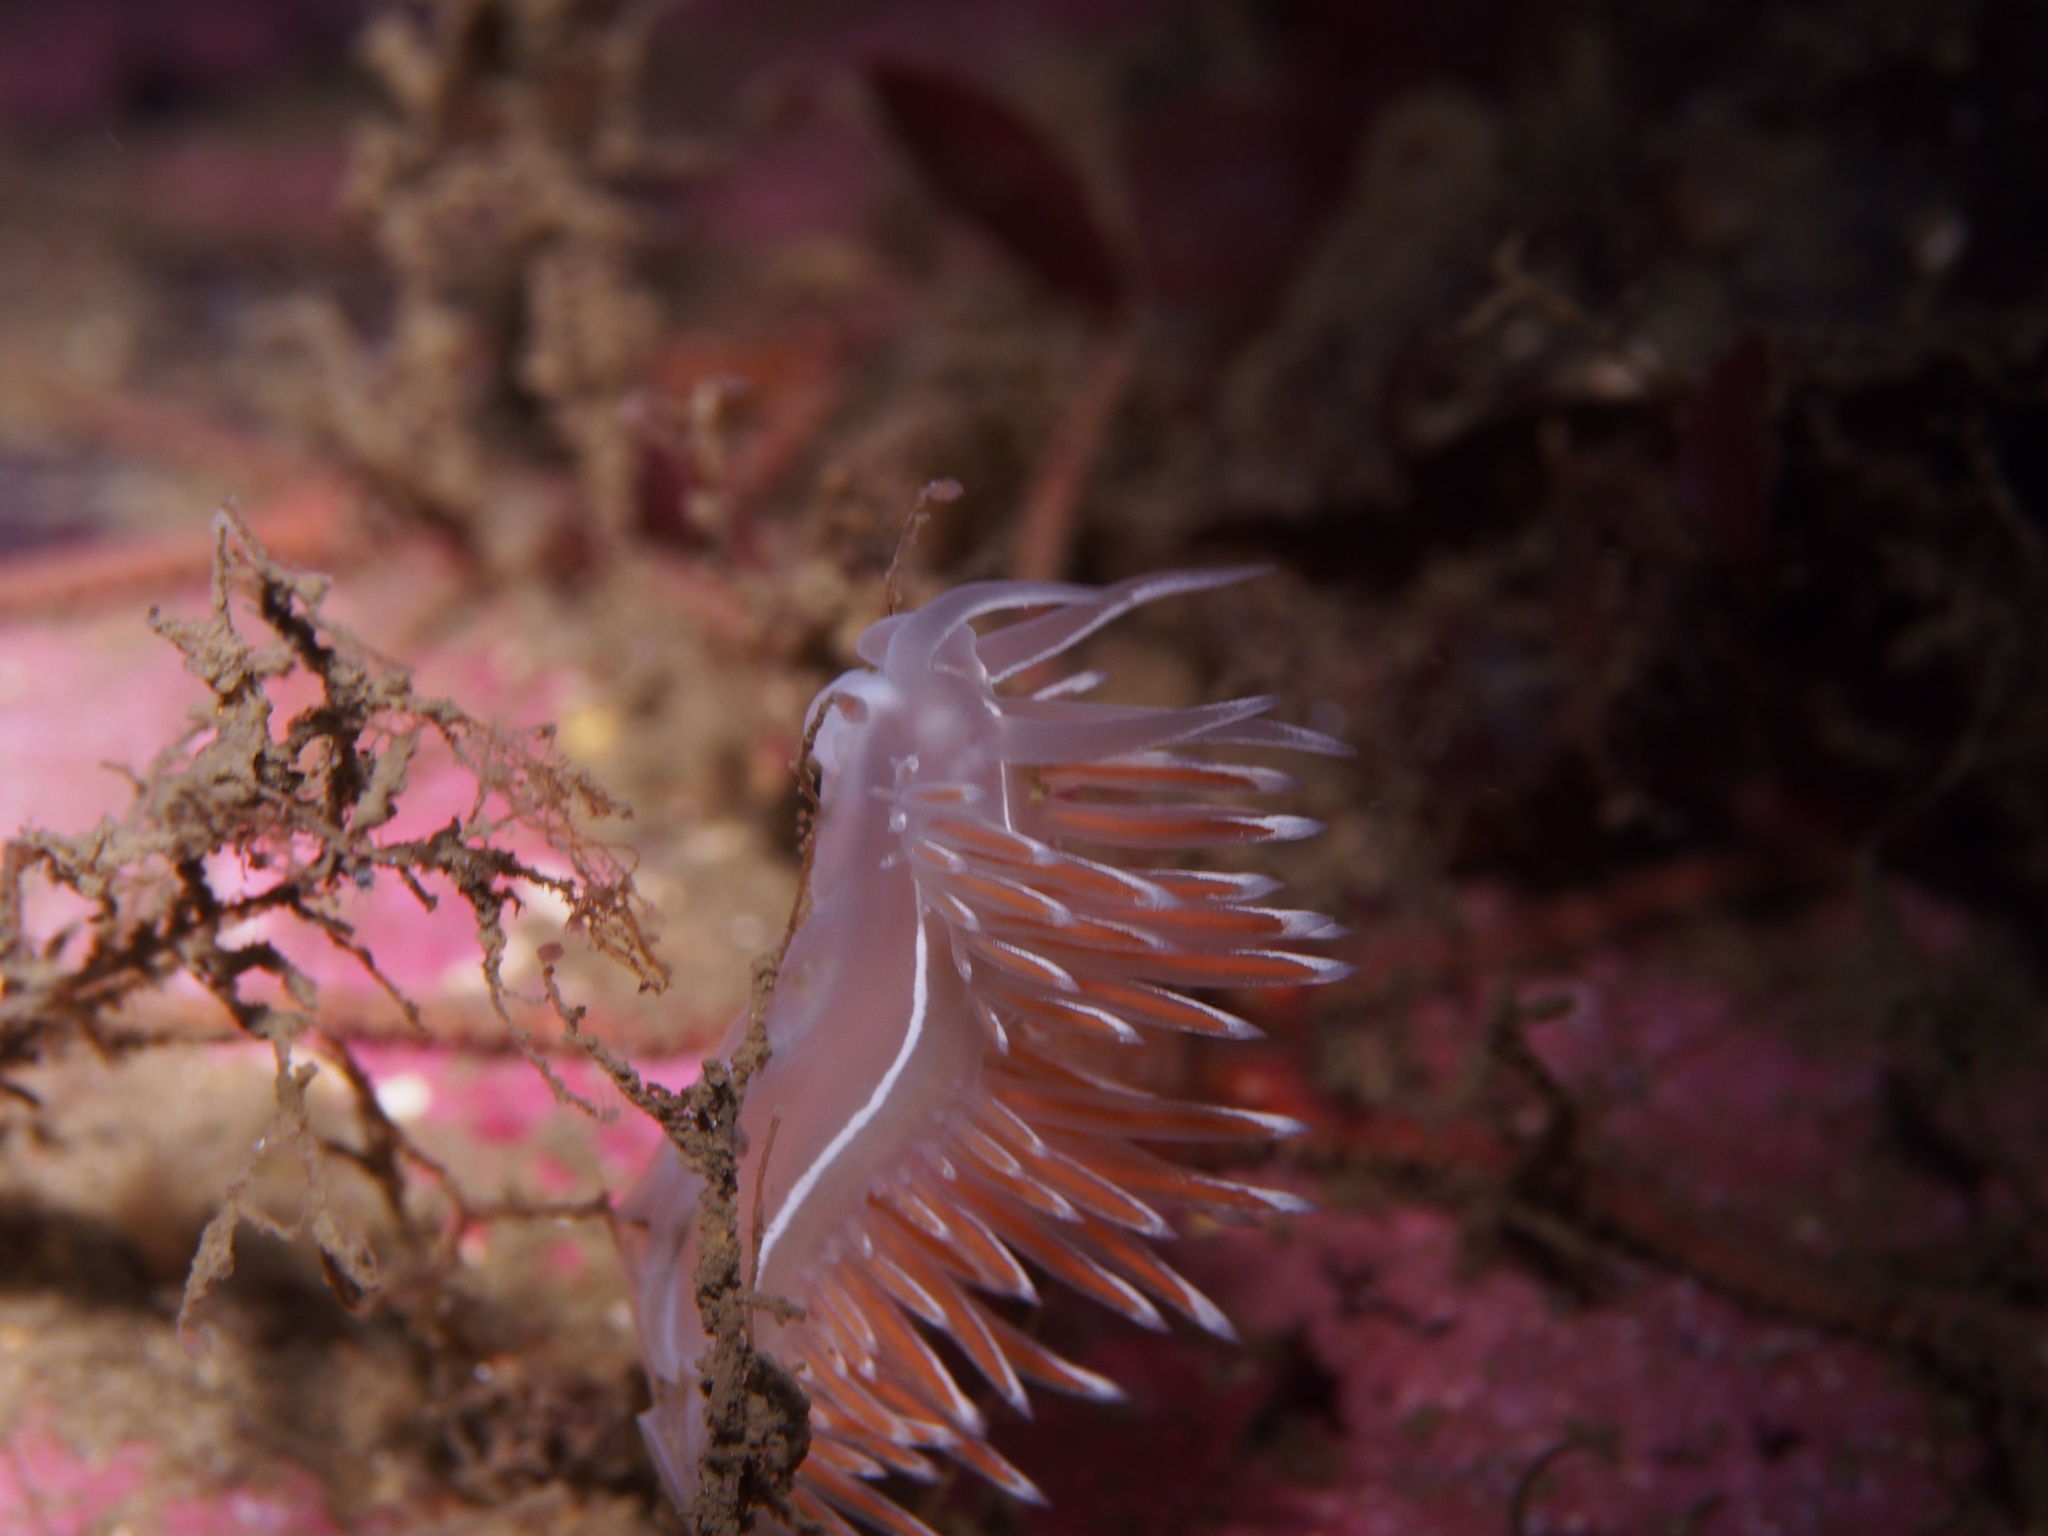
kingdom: Animalia
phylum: Mollusca
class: Gastropoda
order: Nudibranchia
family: Coryphellidae
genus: Coryphella
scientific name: Coryphella lineata
